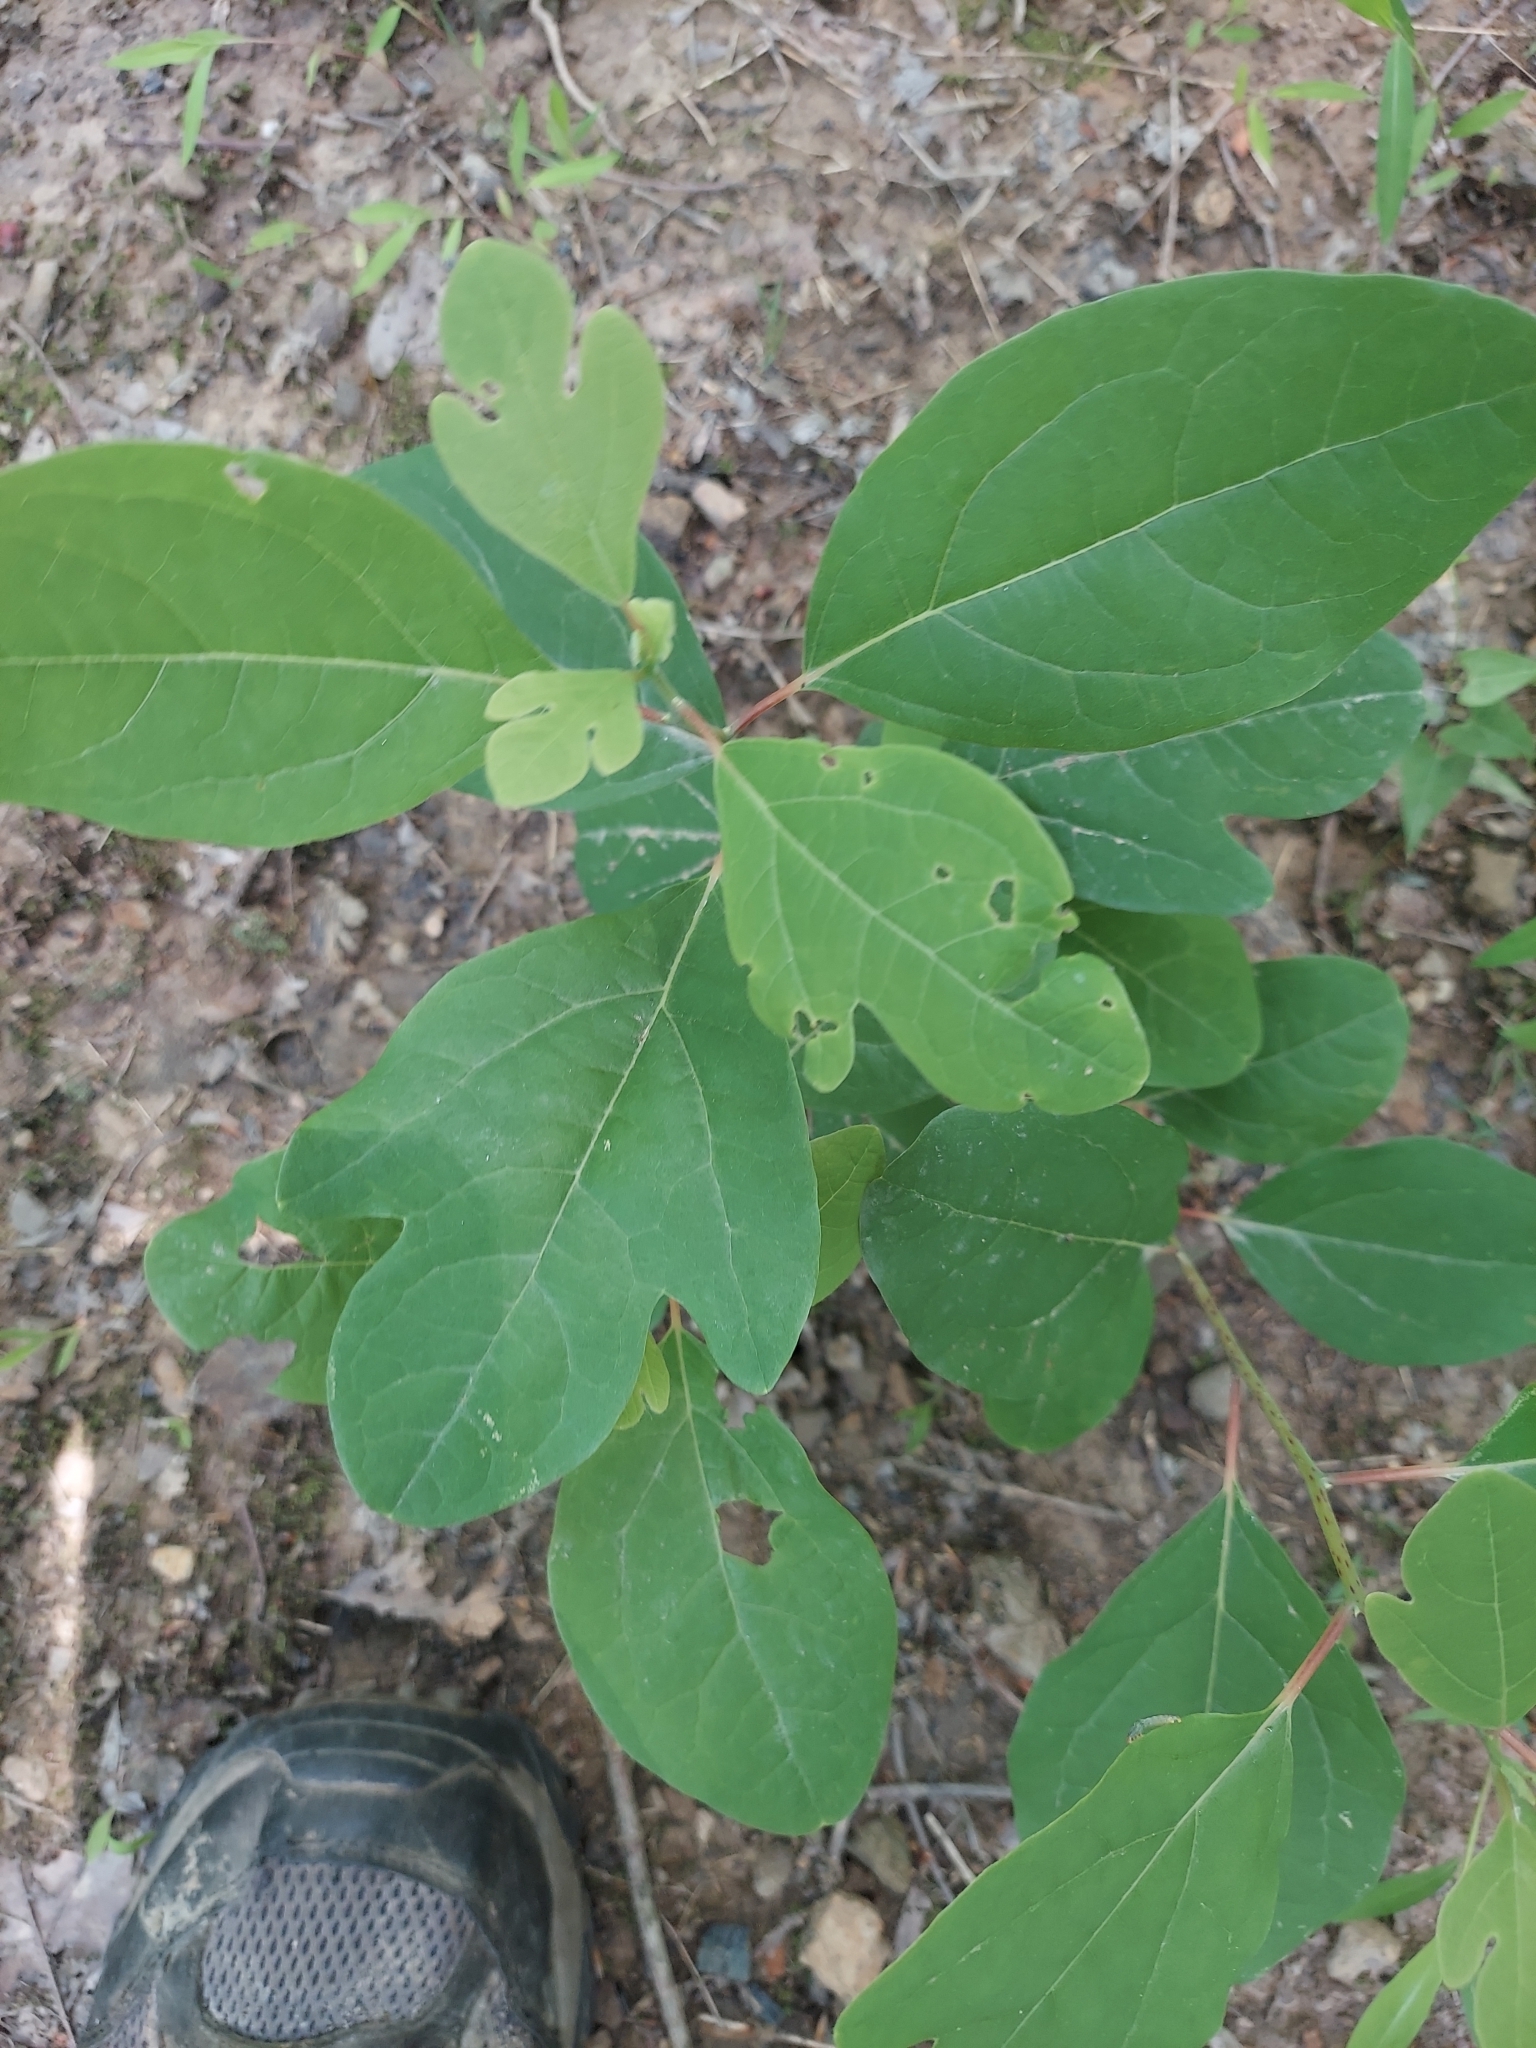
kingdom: Plantae
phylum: Tracheophyta
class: Magnoliopsida
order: Laurales
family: Lauraceae
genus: Sassafras
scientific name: Sassafras albidum
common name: Sassafras
